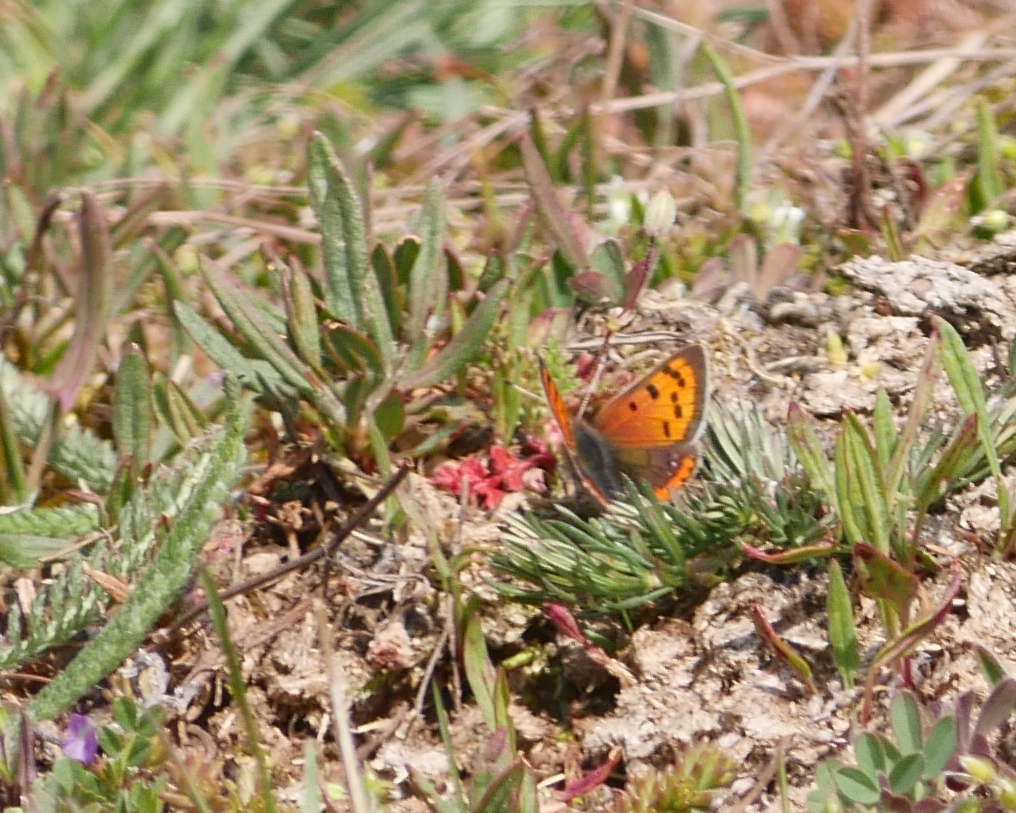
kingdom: Animalia
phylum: Arthropoda
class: Insecta
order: Lepidoptera
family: Lycaenidae
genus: Lycaena
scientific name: Lycaena phlaeas
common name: Small copper
